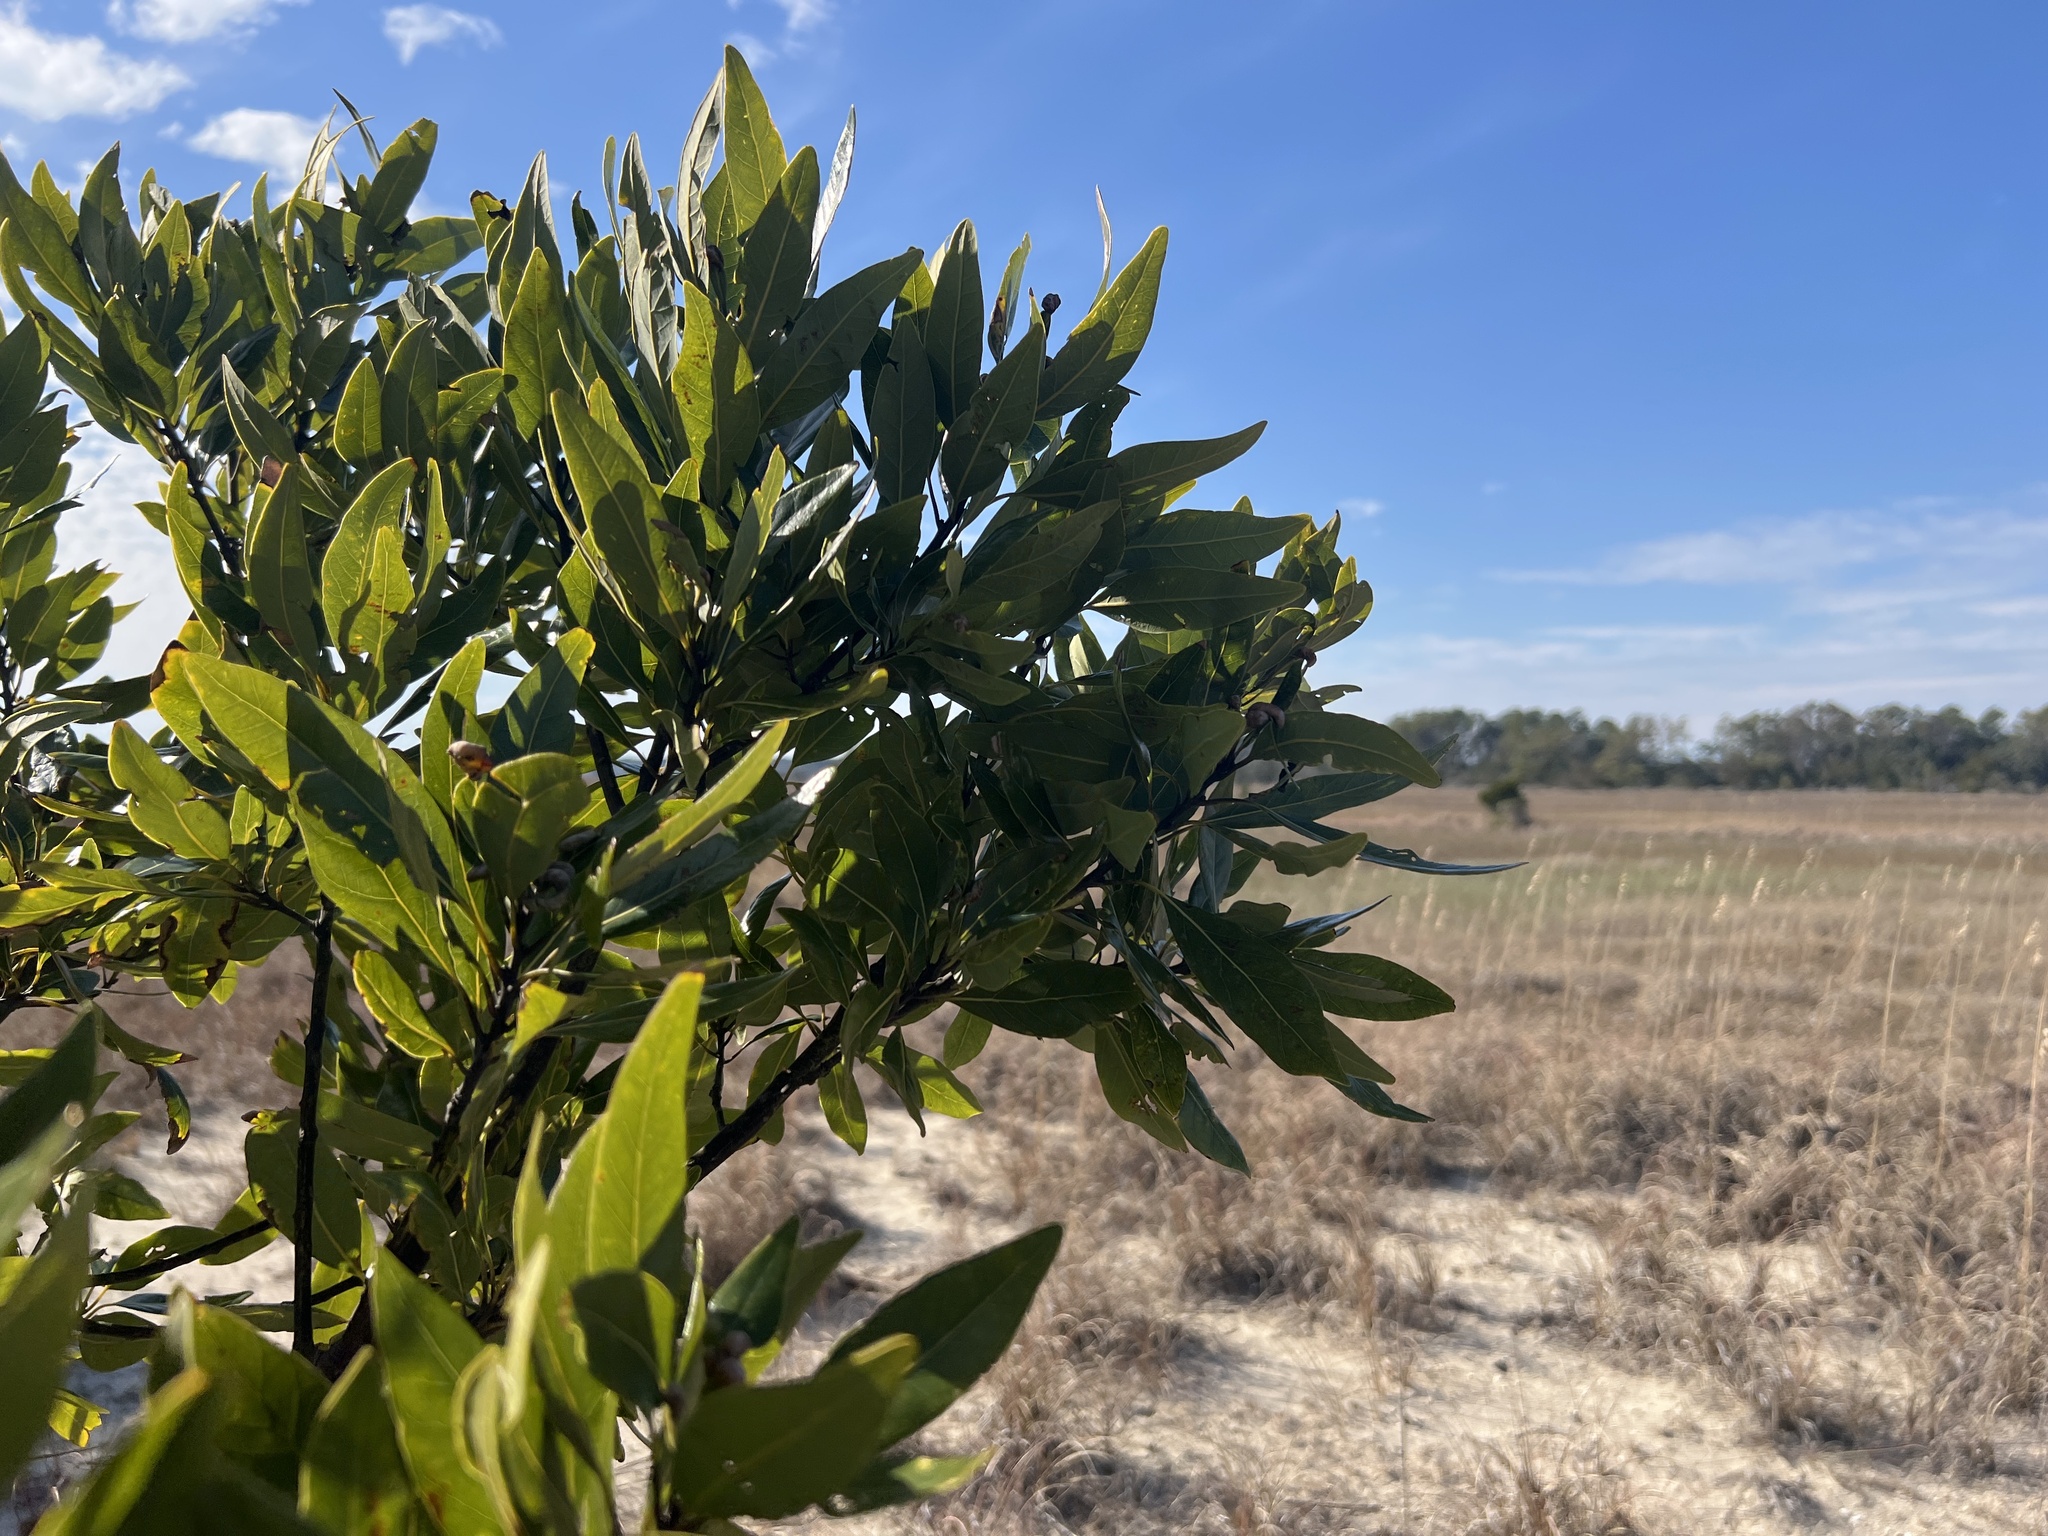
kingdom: Plantae
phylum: Tracheophyta
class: Magnoliopsida
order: Laurales
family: Lauraceae
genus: Persea
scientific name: Persea borbonia
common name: Redbay
